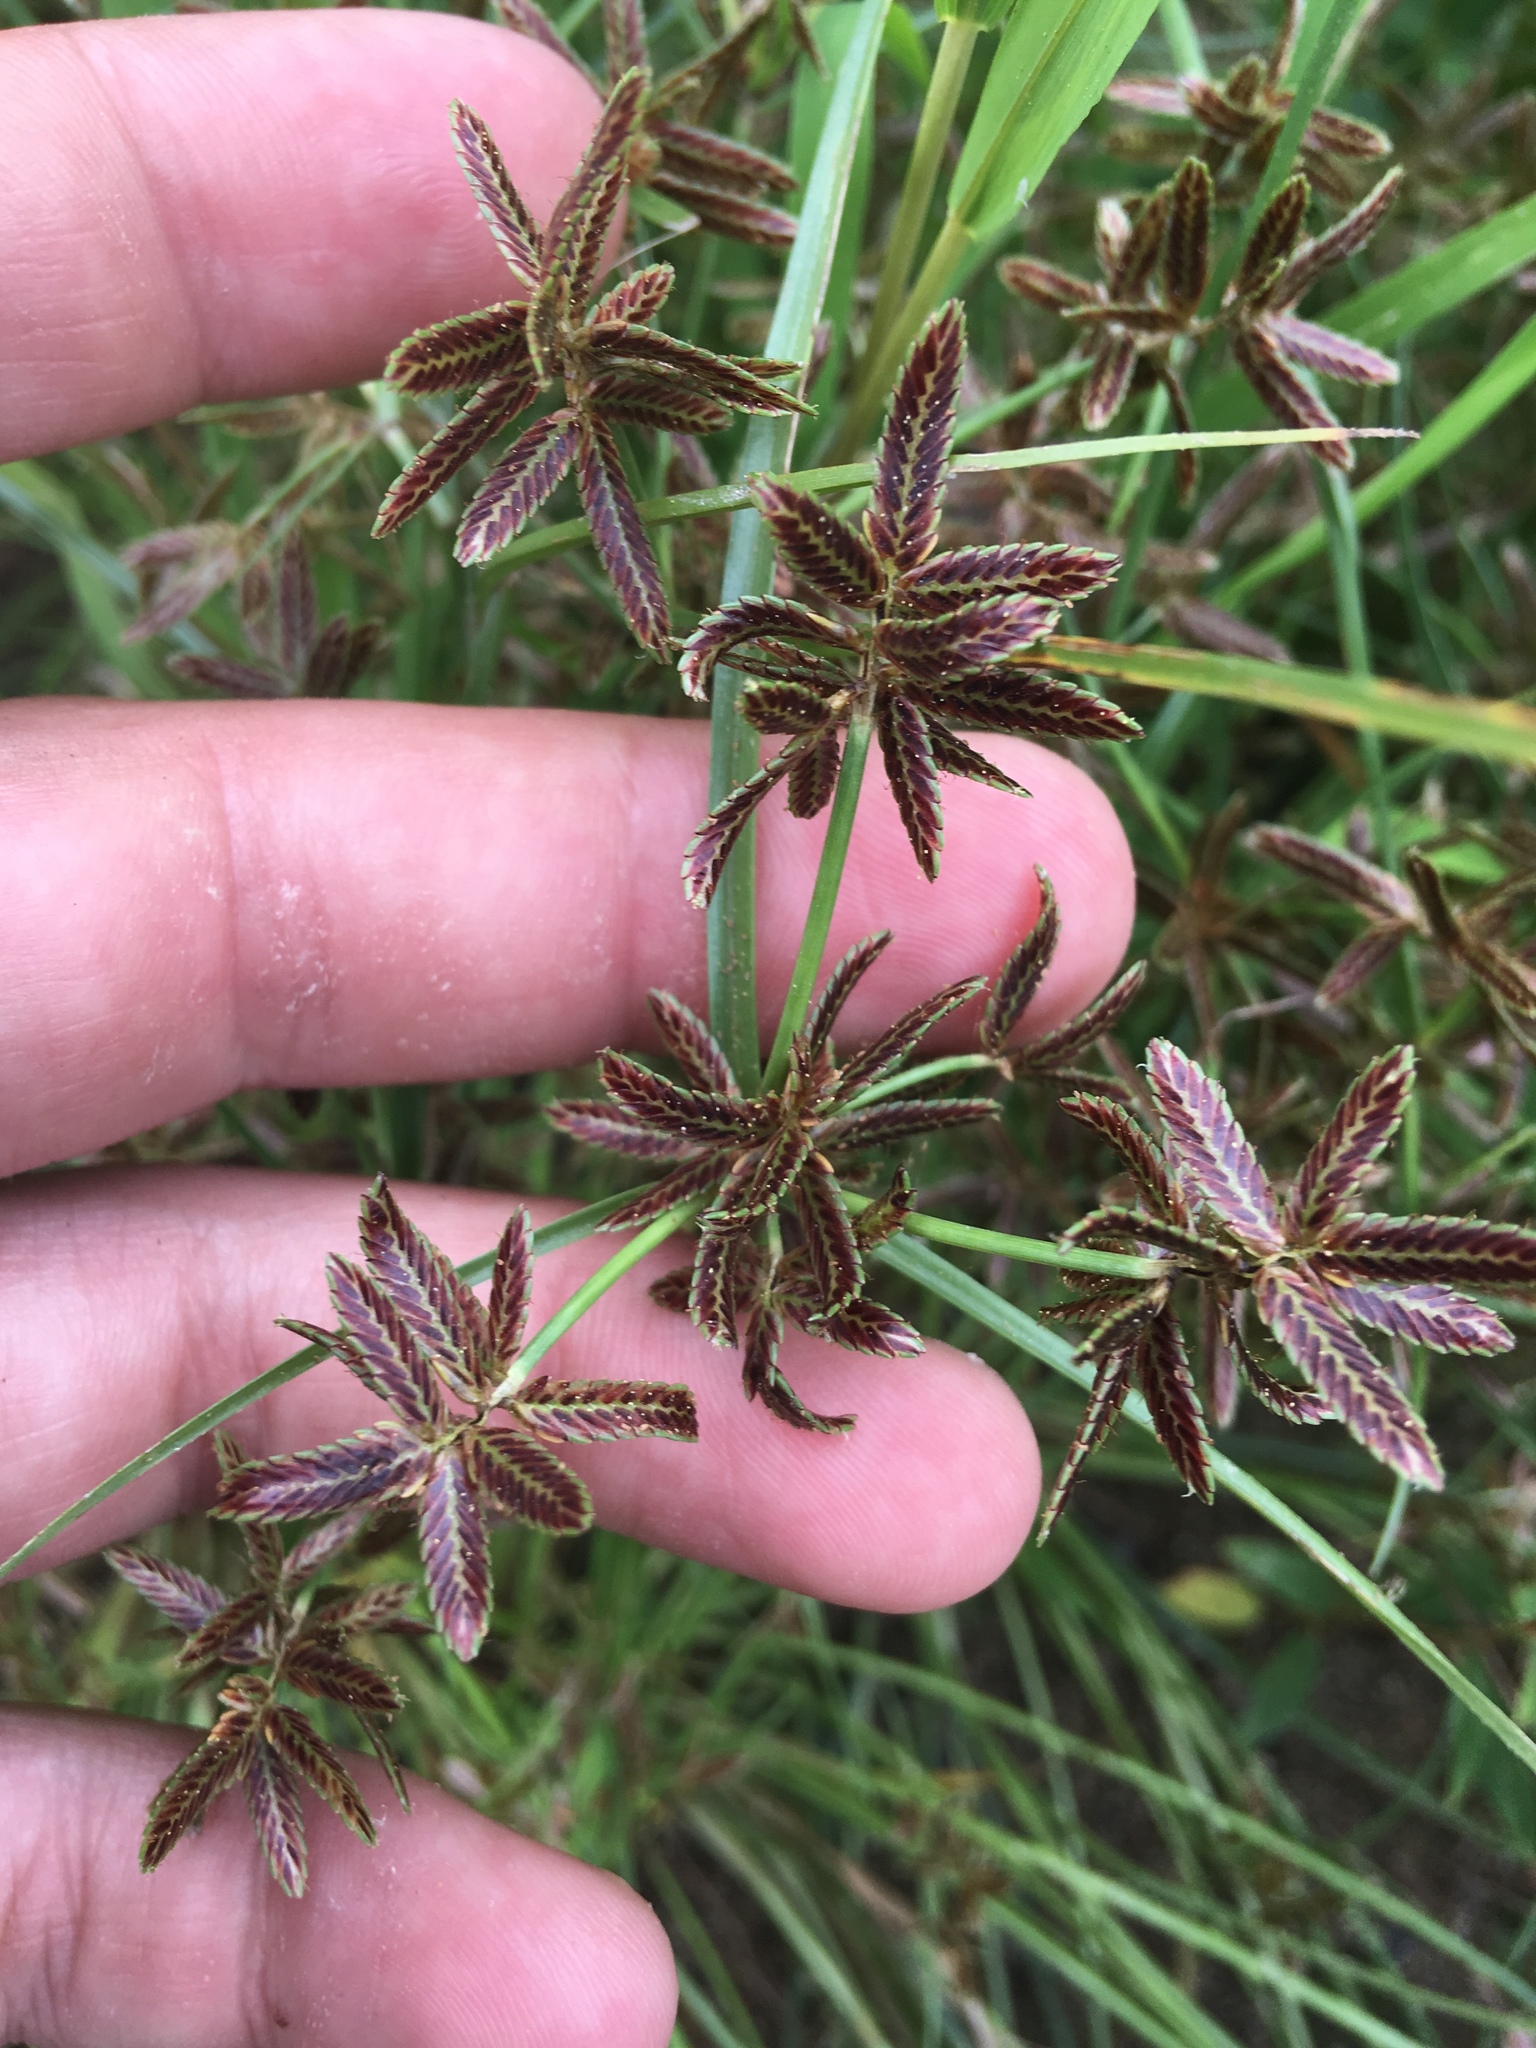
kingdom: Plantae
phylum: Tracheophyta
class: Liliopsida
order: Poales
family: Cyperaceae
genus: Cyperus
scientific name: Cyperus bipartitus
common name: Brook flatsedge
